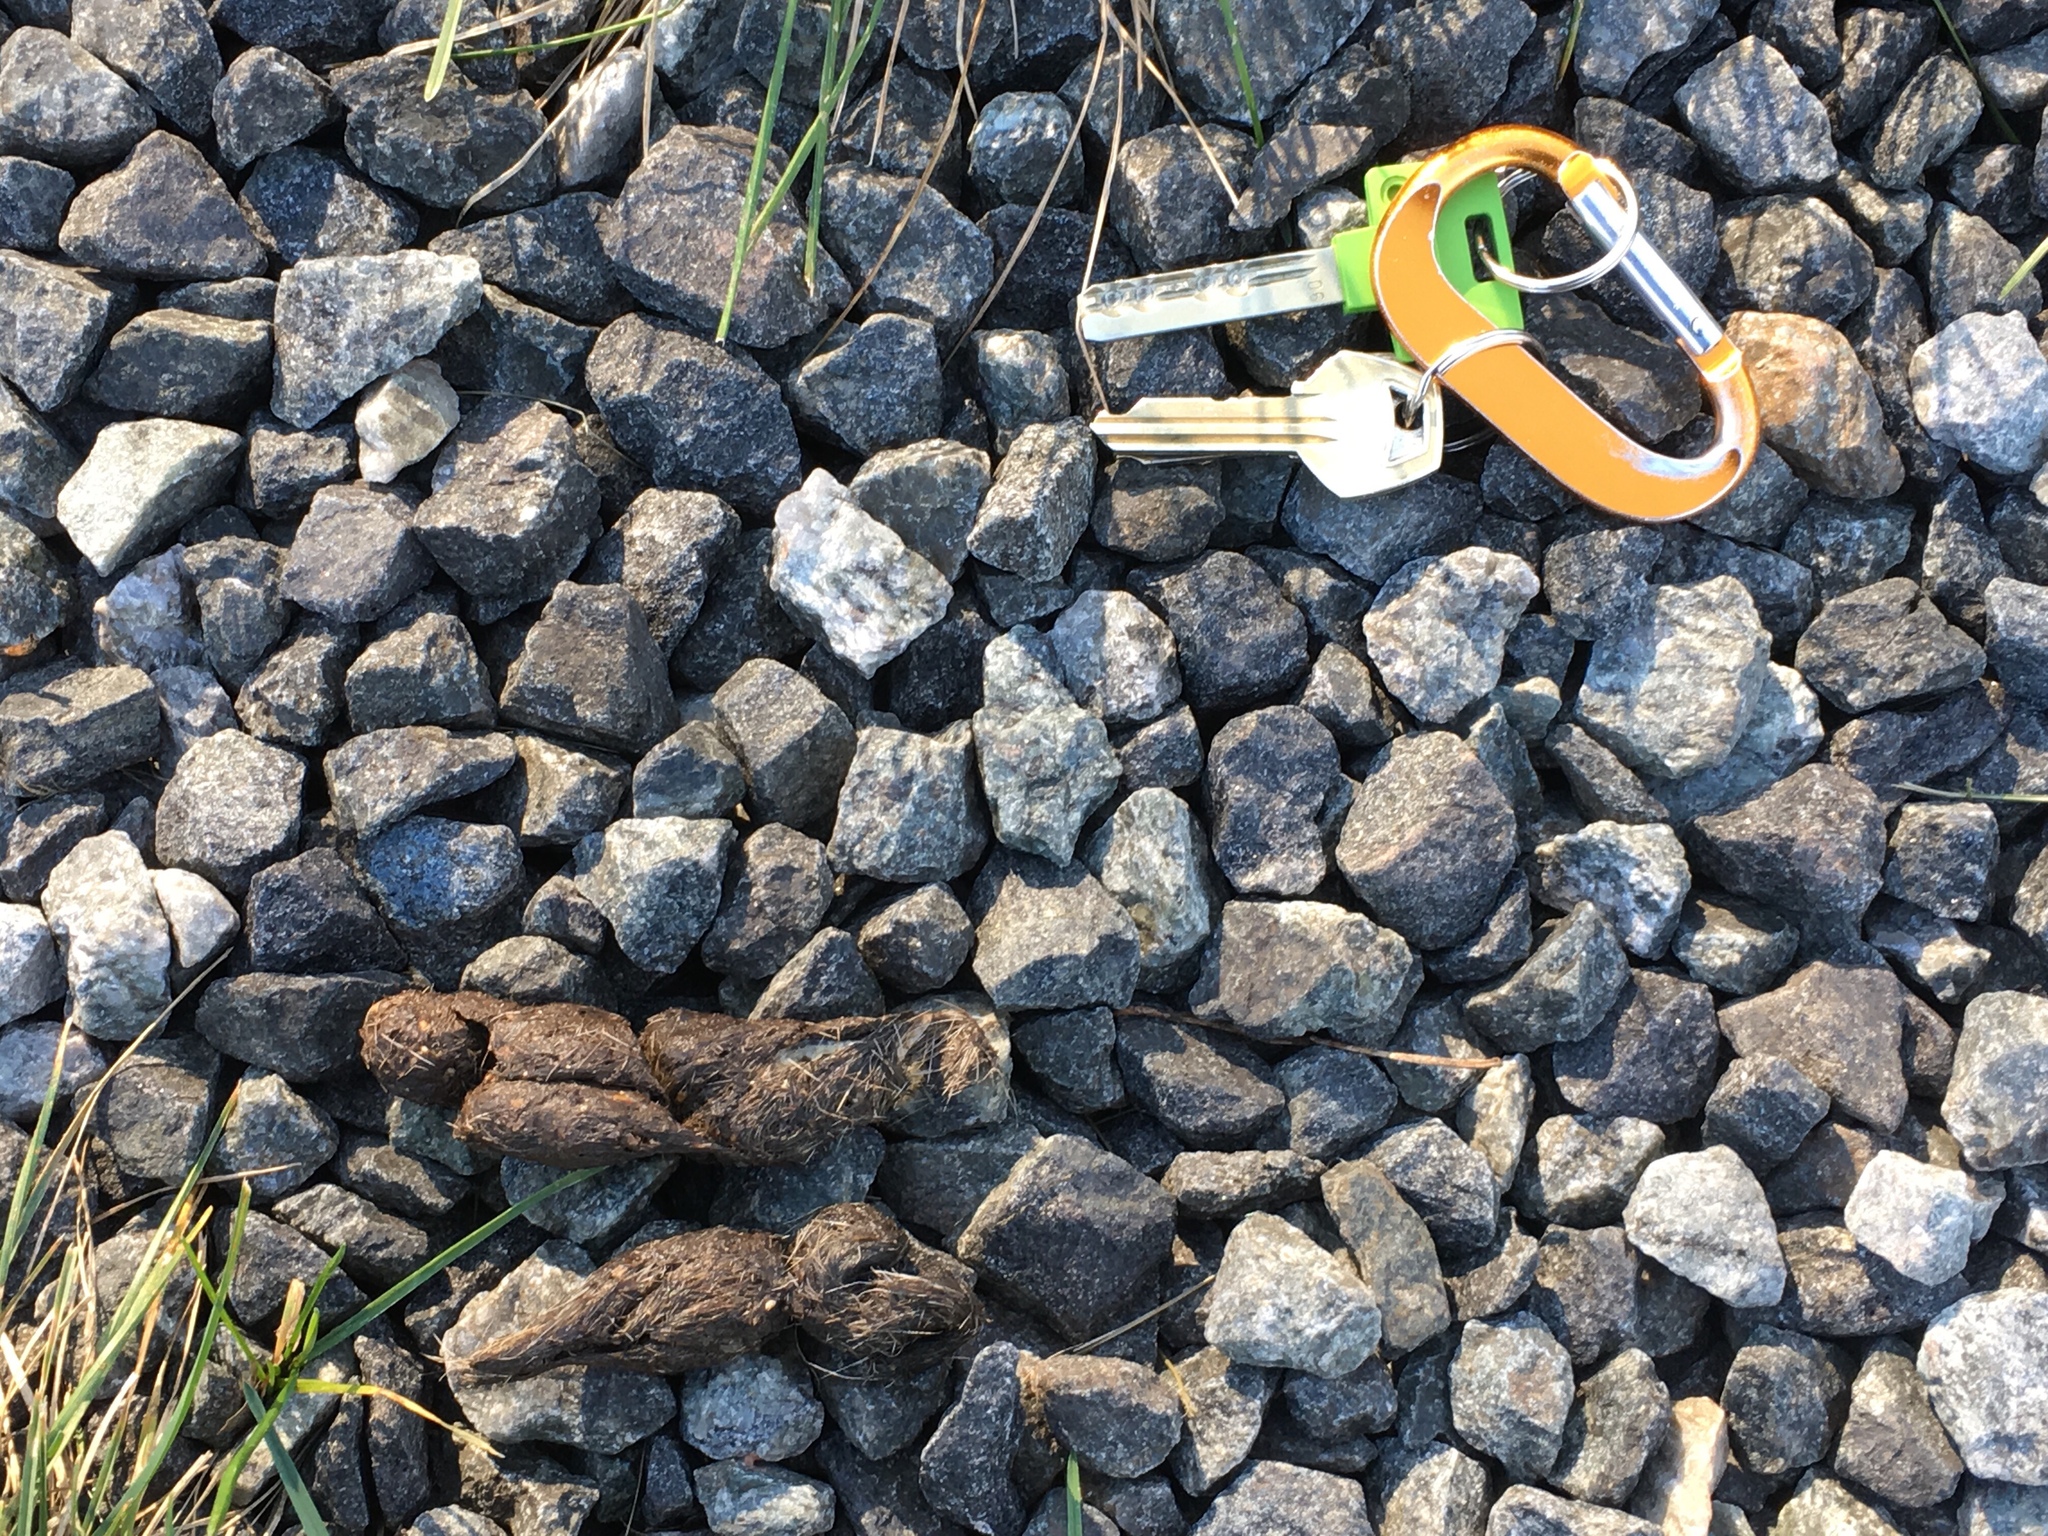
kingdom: Animalia
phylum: Chordata
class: Mammalia
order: Carnivora
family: Felidae
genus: Felis
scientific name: Felis catus
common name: Domestic cat
